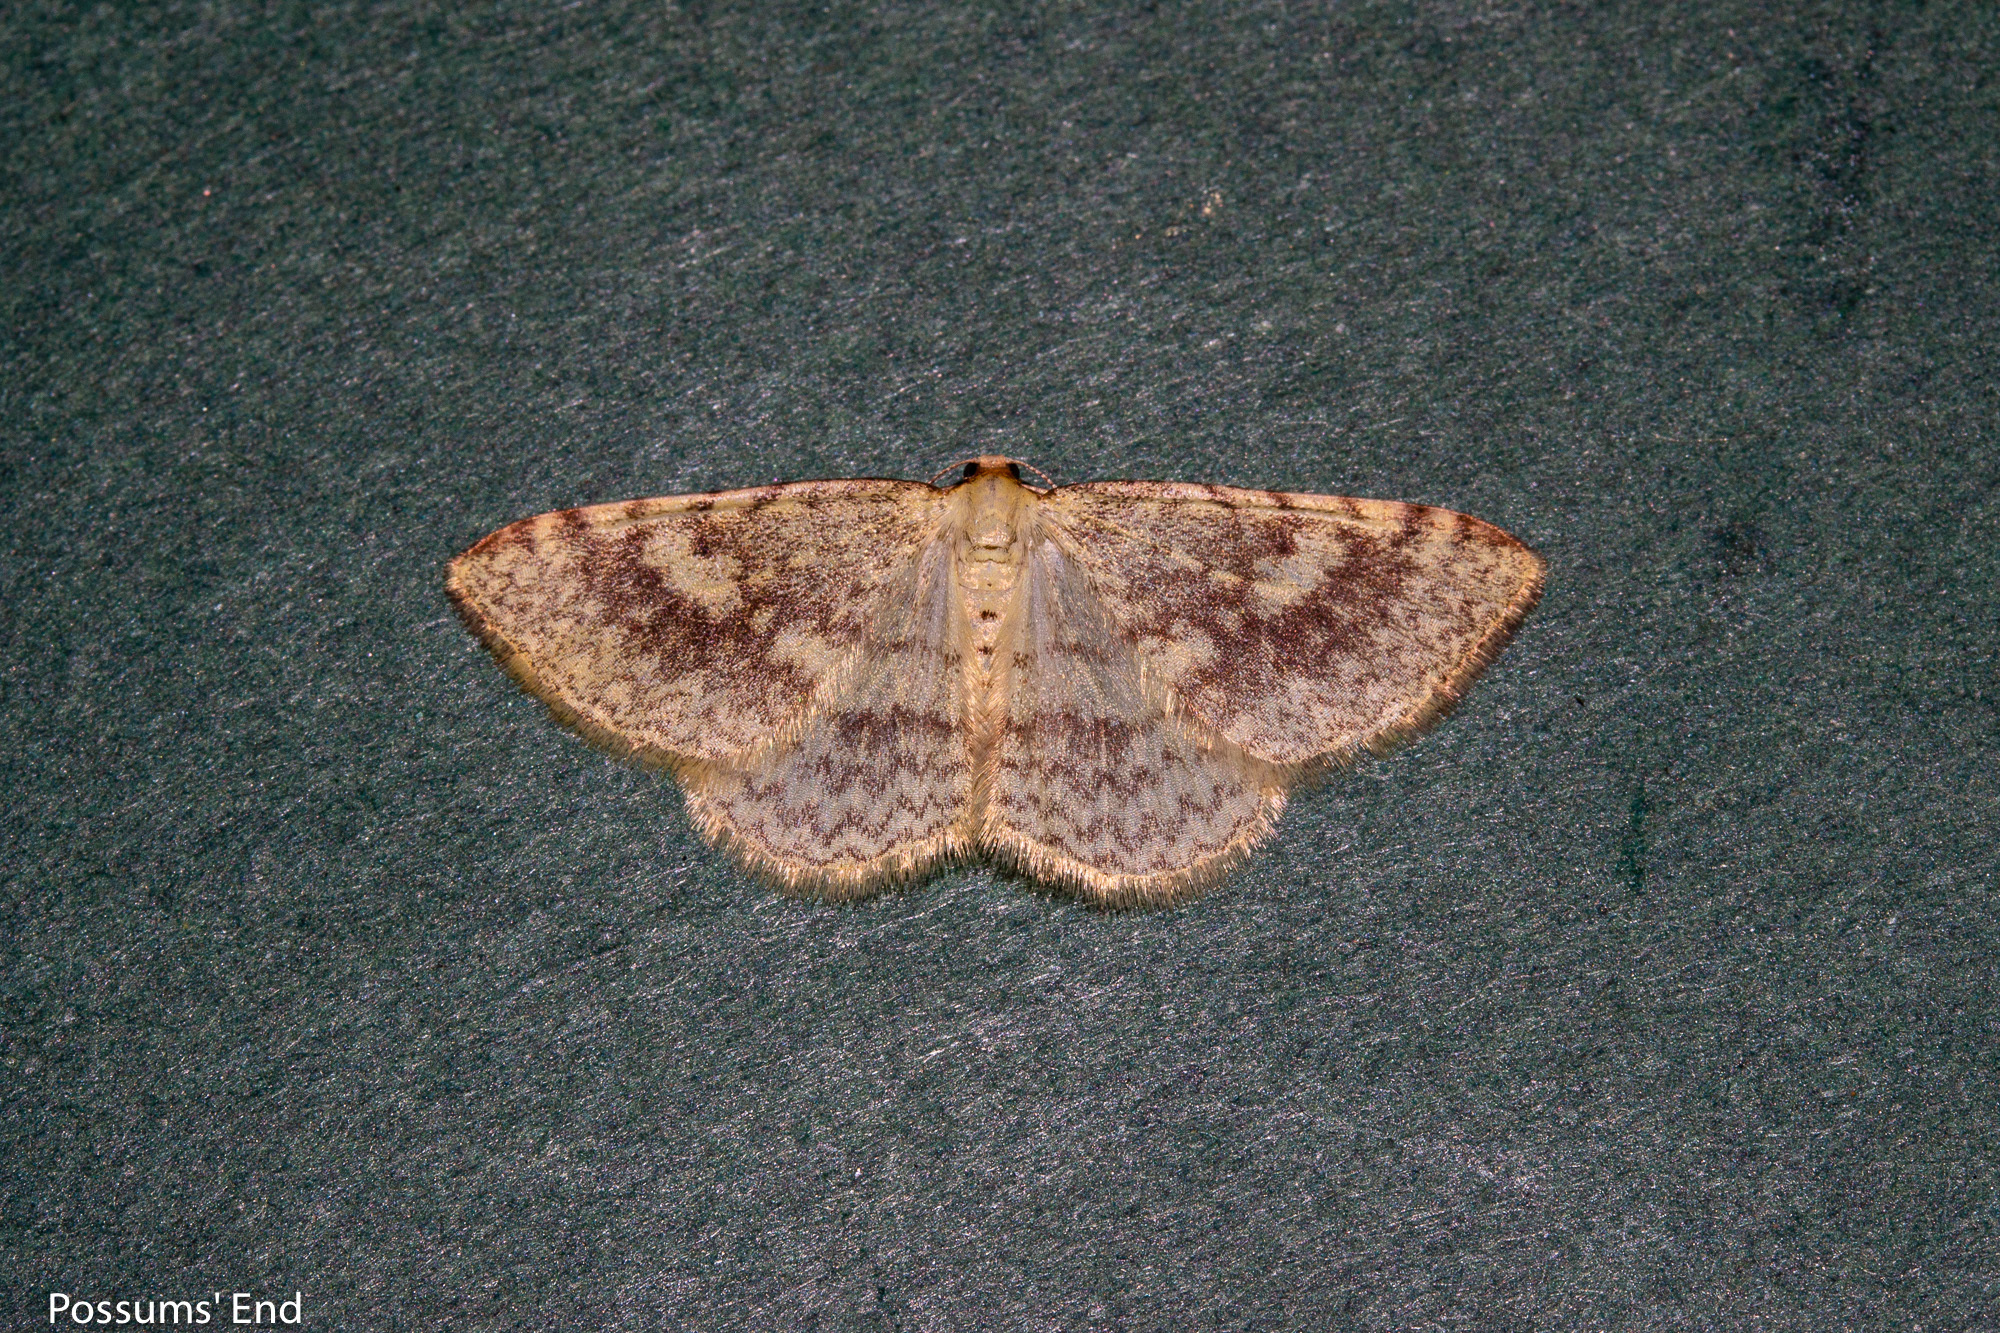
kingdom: Animalia
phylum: Arthropoda
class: Insecta
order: Lepidoptera
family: Geometridae
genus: Epiphryne
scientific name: Epiphryne undosata
